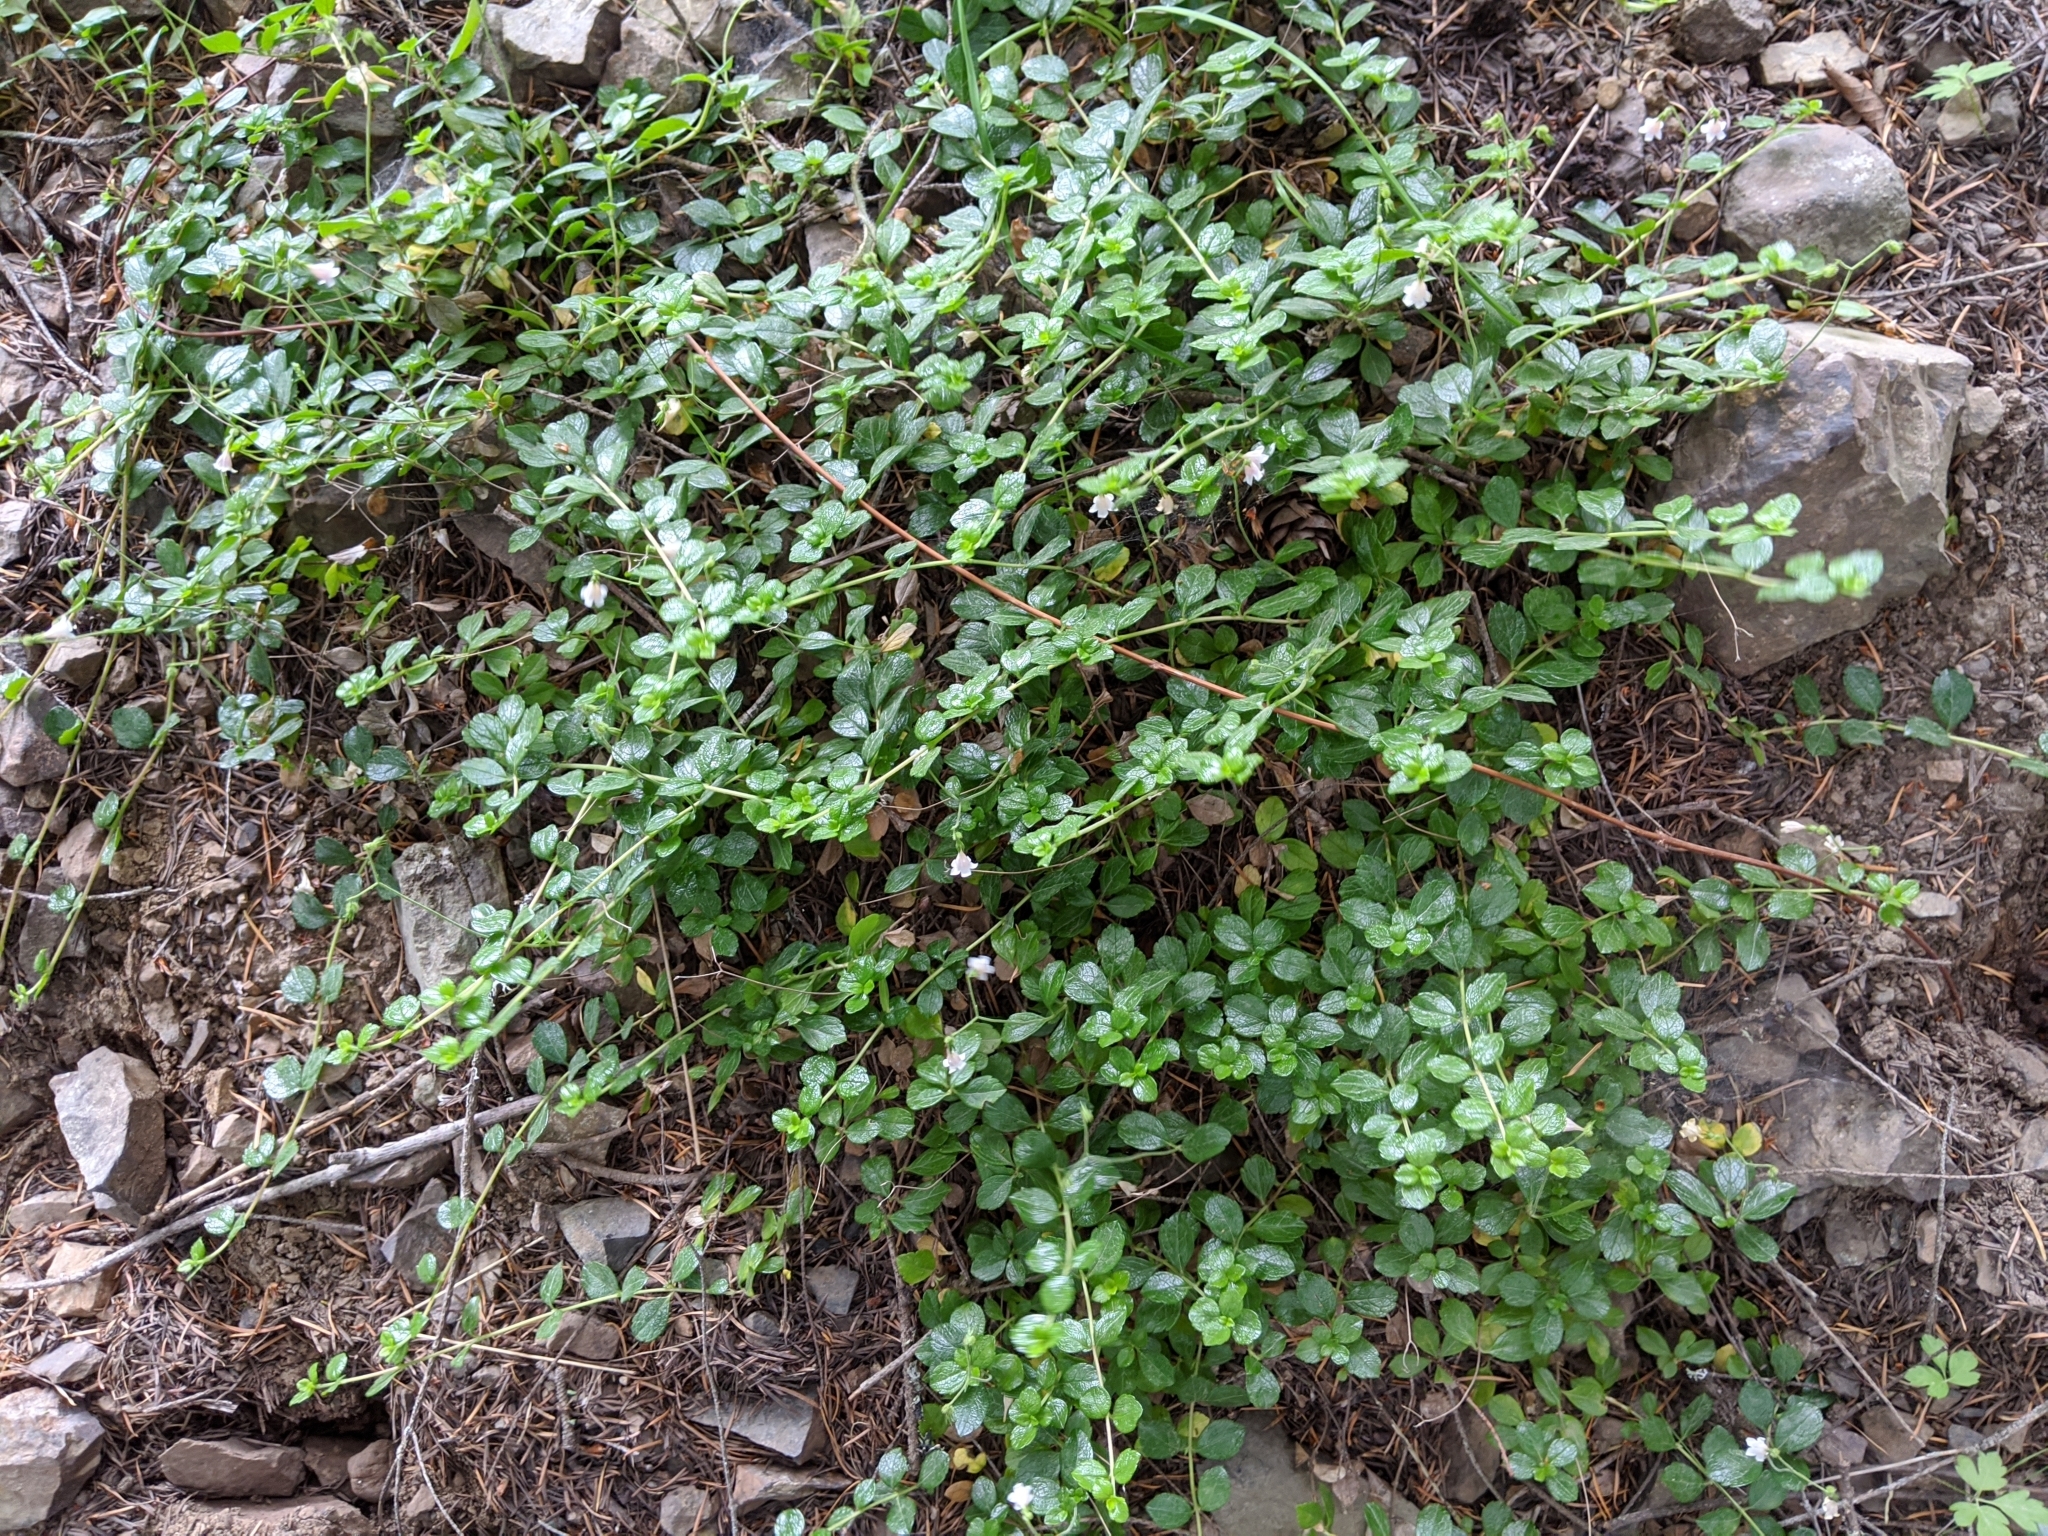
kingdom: Plantae
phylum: Tracheophyta
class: Magnoliopsida
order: Dipsacales
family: Caprifoliaceae
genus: Linnaea
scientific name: Linnaea borealis
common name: Twinflower
